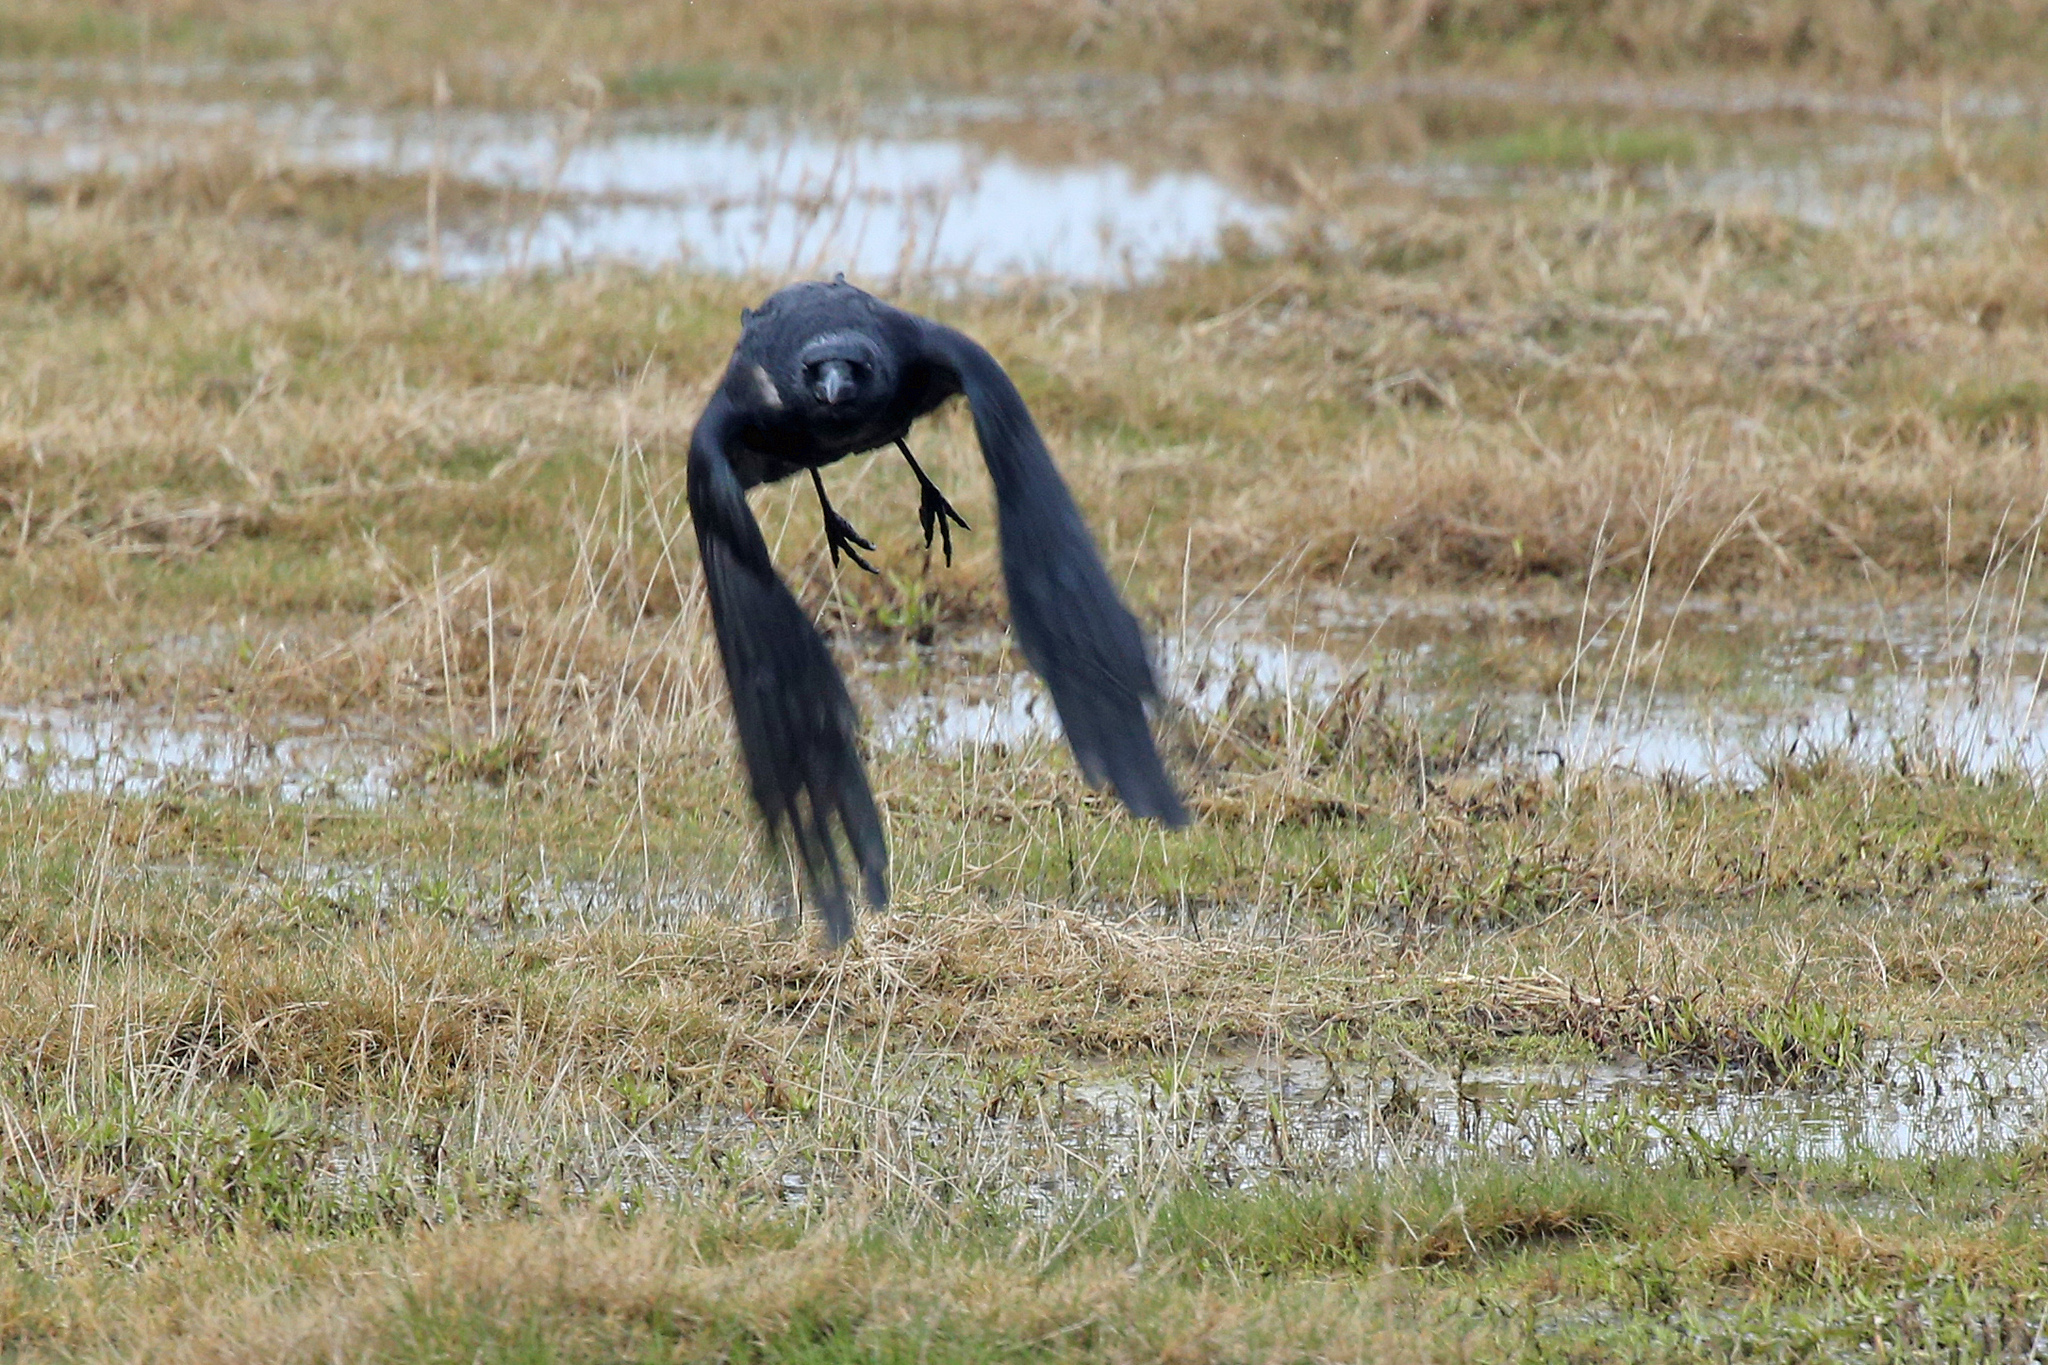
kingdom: Animalia
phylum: Chordata
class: Aves
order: Passeriformes
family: Corvidae
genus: Corvus
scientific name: Corvus corone
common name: Carrion crow
